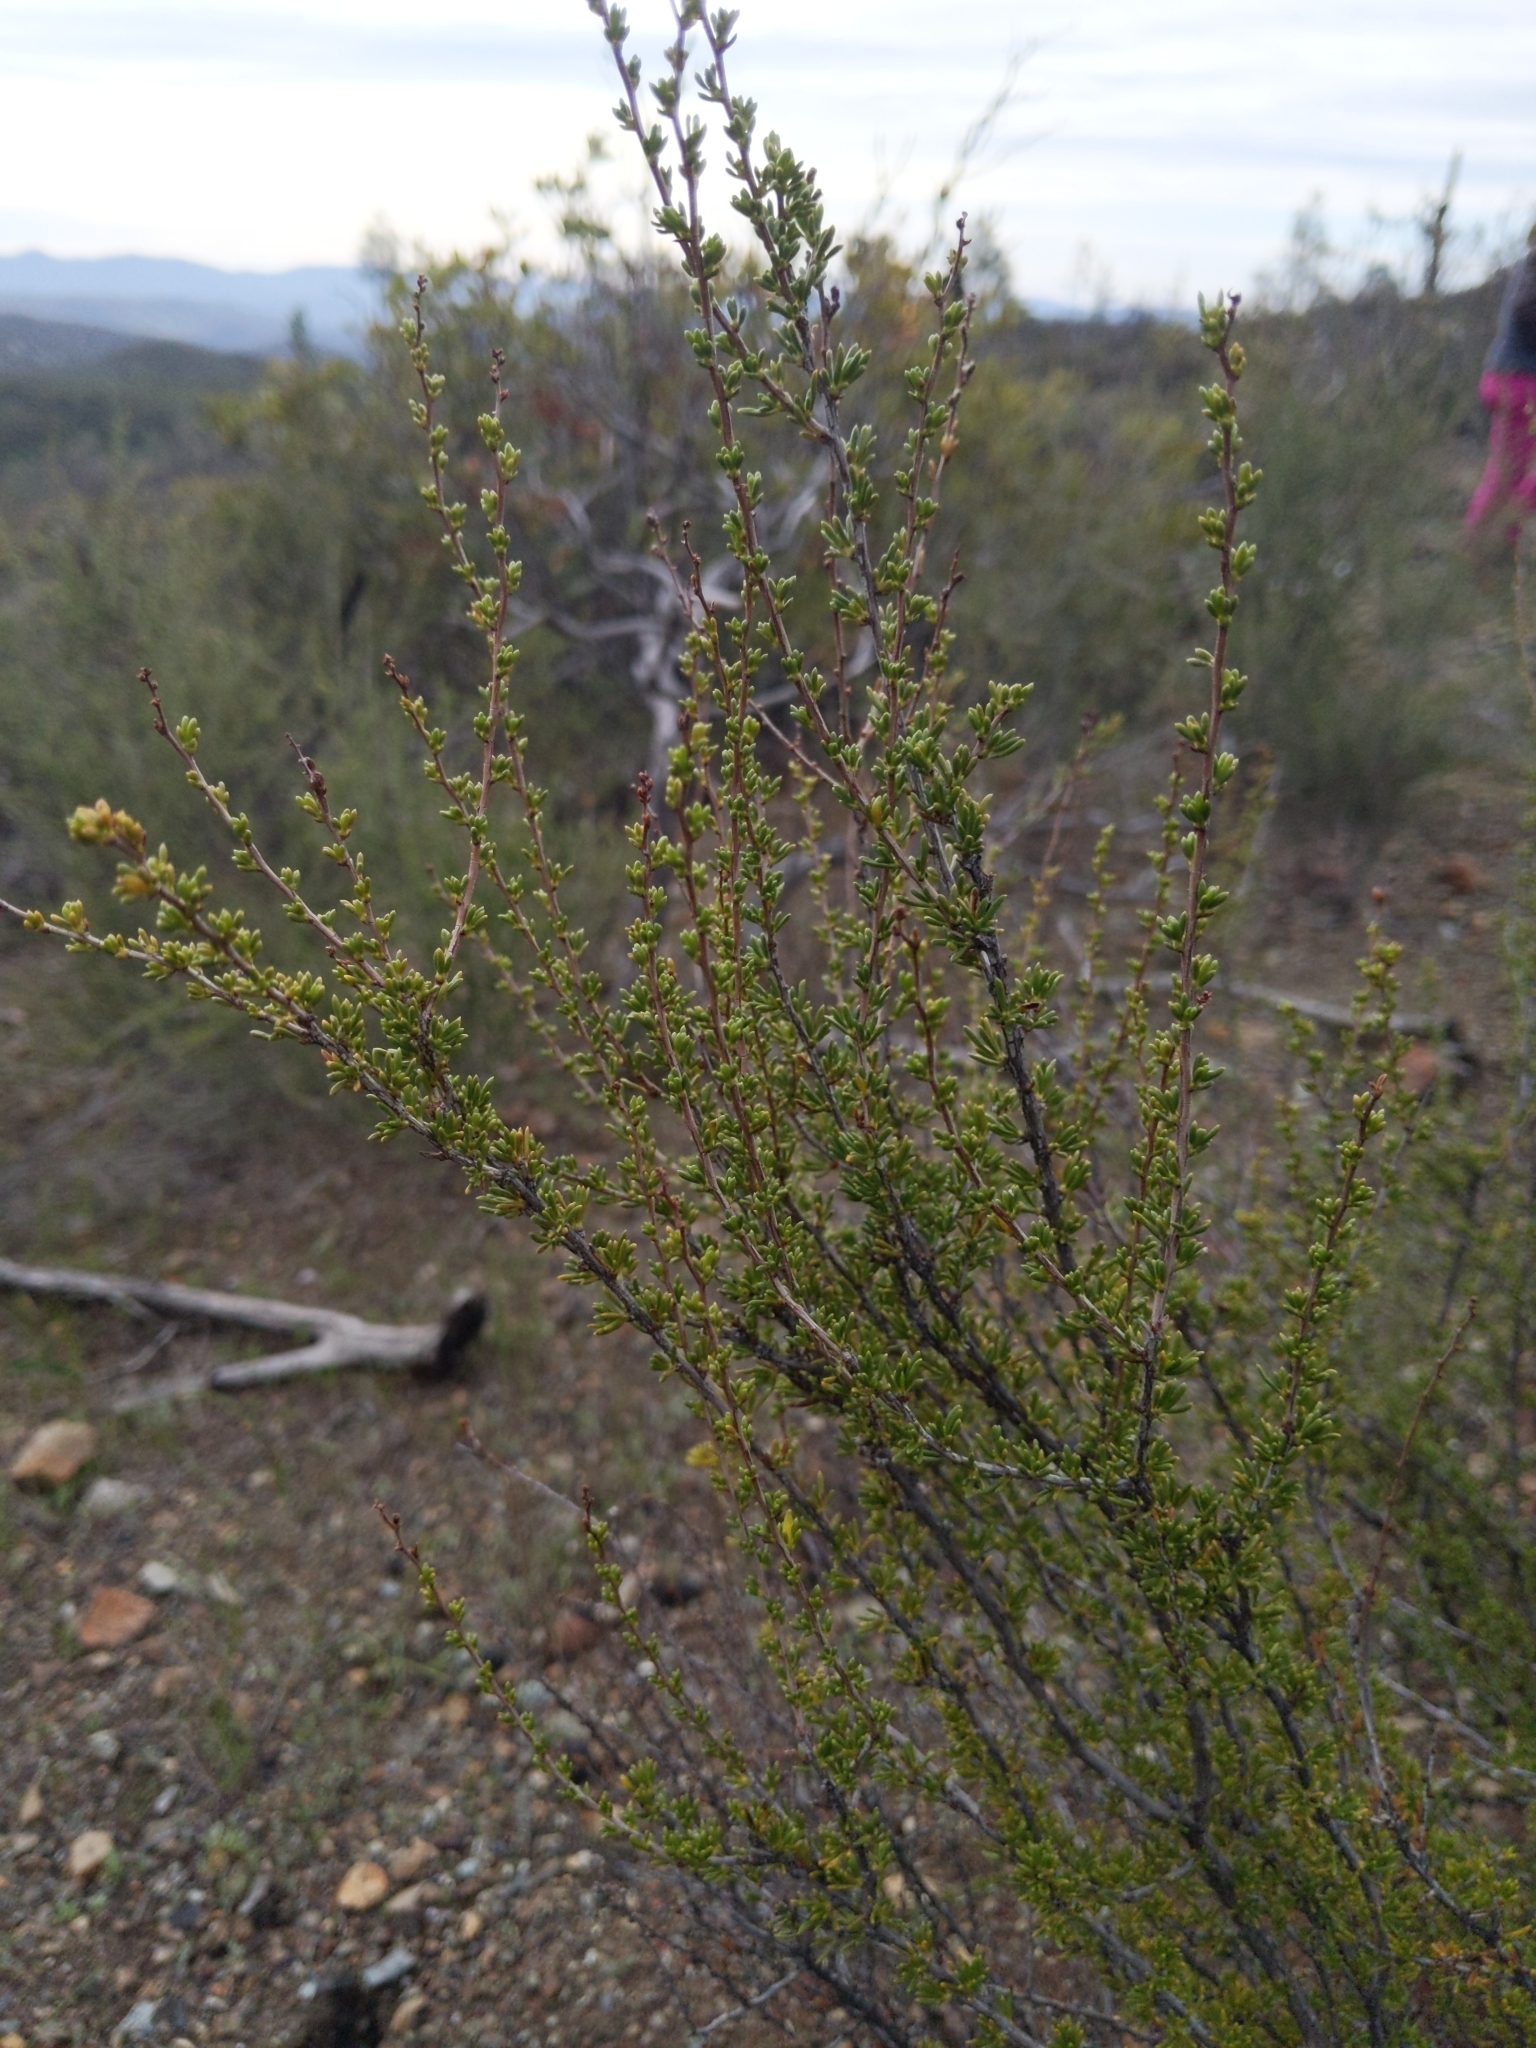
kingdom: Plantae
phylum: Tracheophyta
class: Magnoliopsida
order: Rosales
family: Rosaceae
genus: Adenostoma
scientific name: Adenostoma fasciculatum
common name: Chamise
